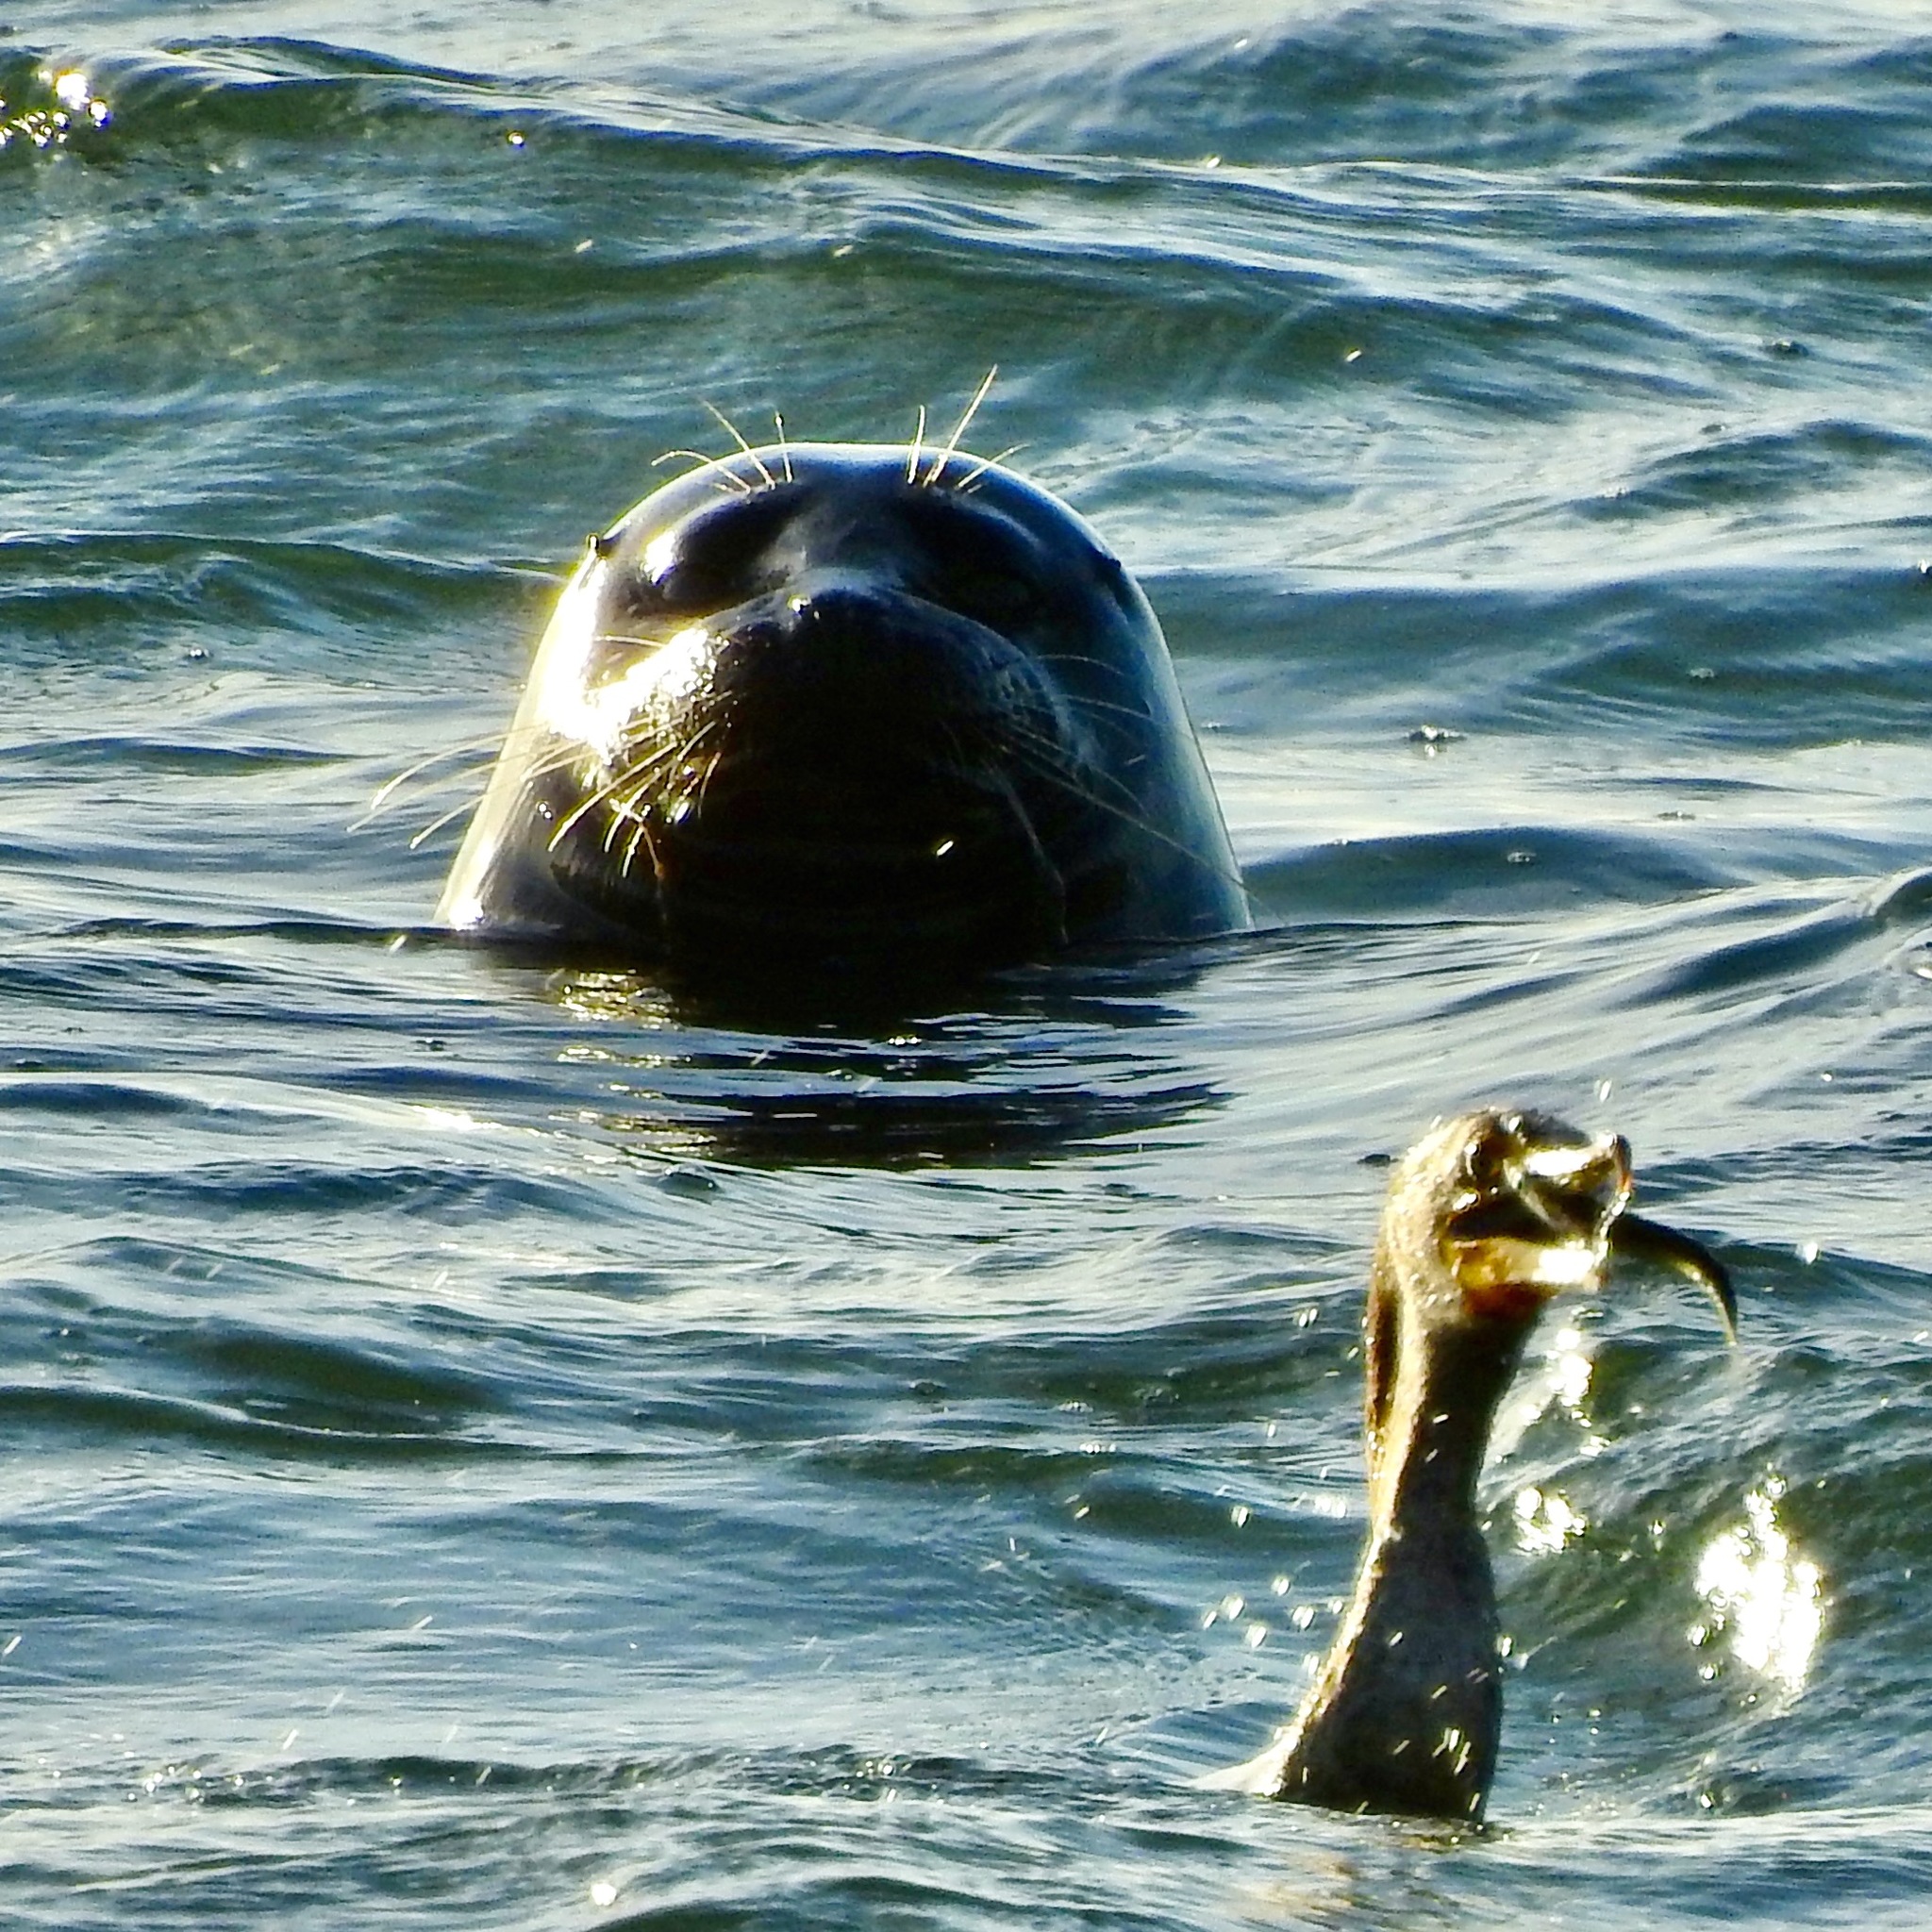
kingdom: Animalia
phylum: Chordata
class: Mammalia
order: Carnivora
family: Phocidae
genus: Phoca
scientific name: Phoca vitulina
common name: Harbor seal
